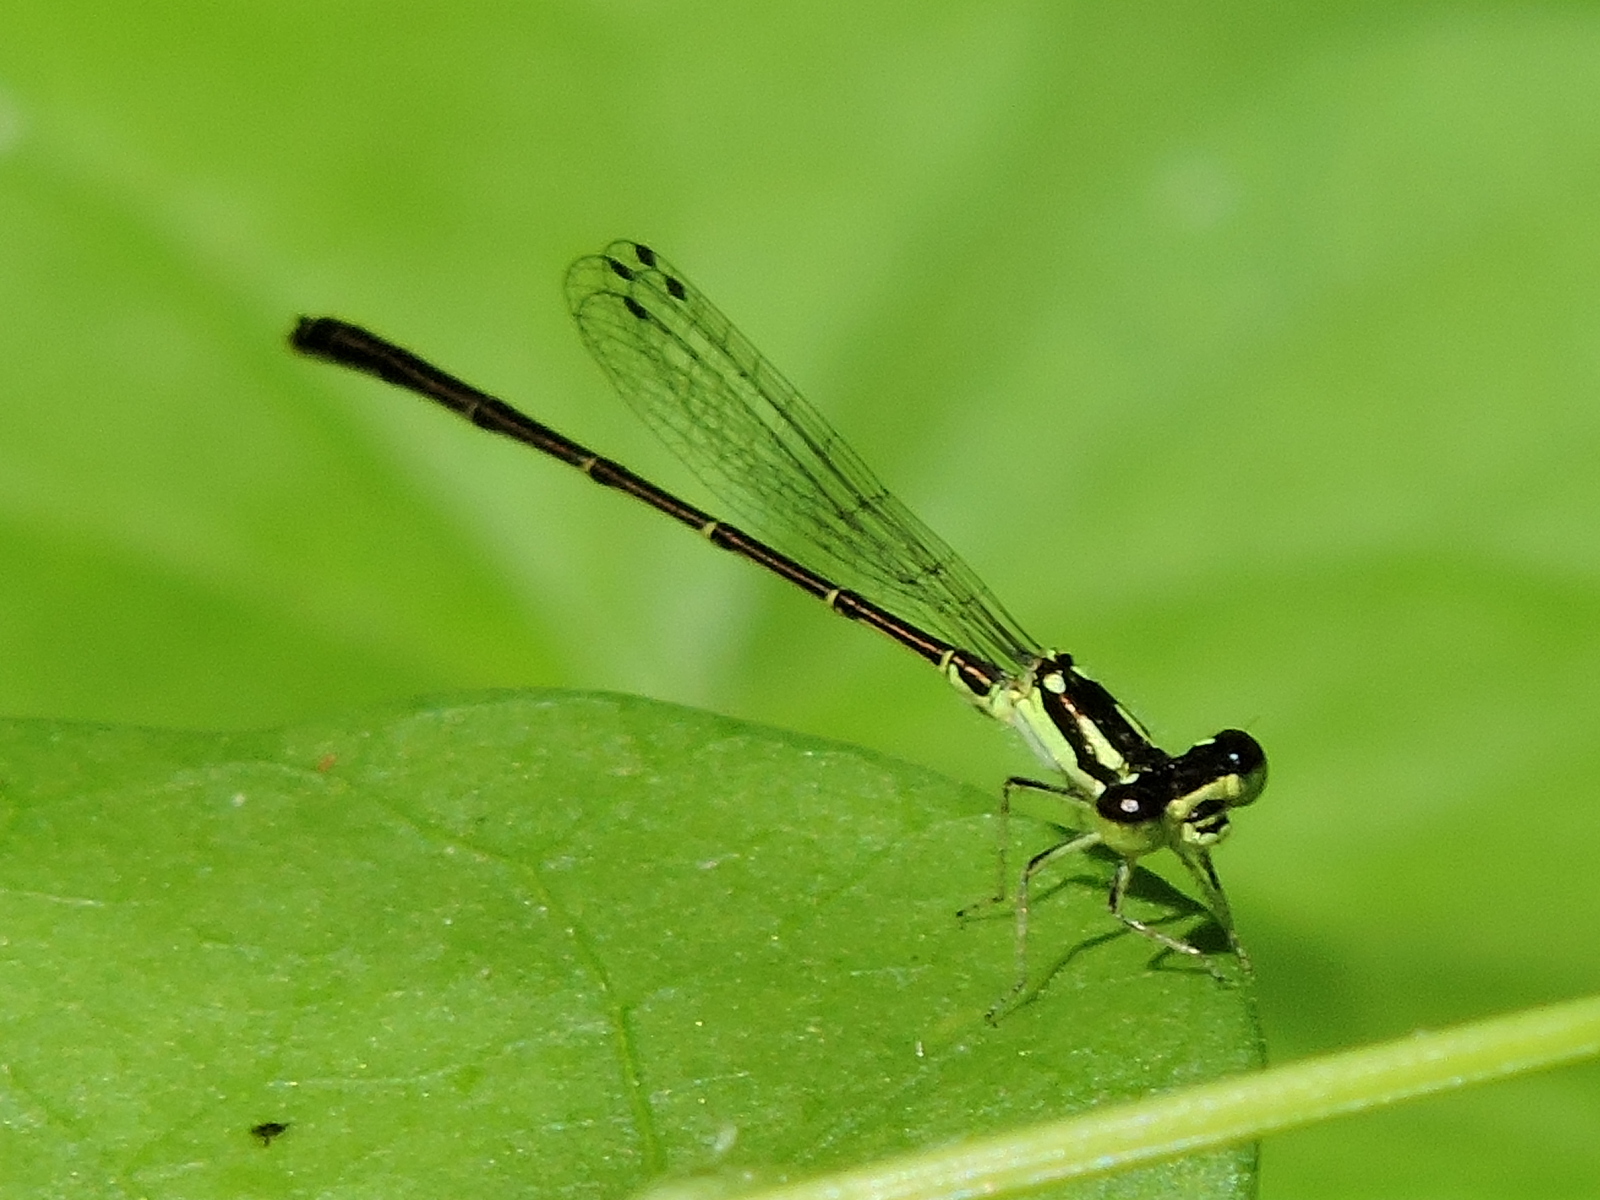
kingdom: Animalia
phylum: Arthropoda
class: Insecta
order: Odonata
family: Coenagrionidae
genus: Ischnura
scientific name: Ischnura posita
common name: Fragile forktail
